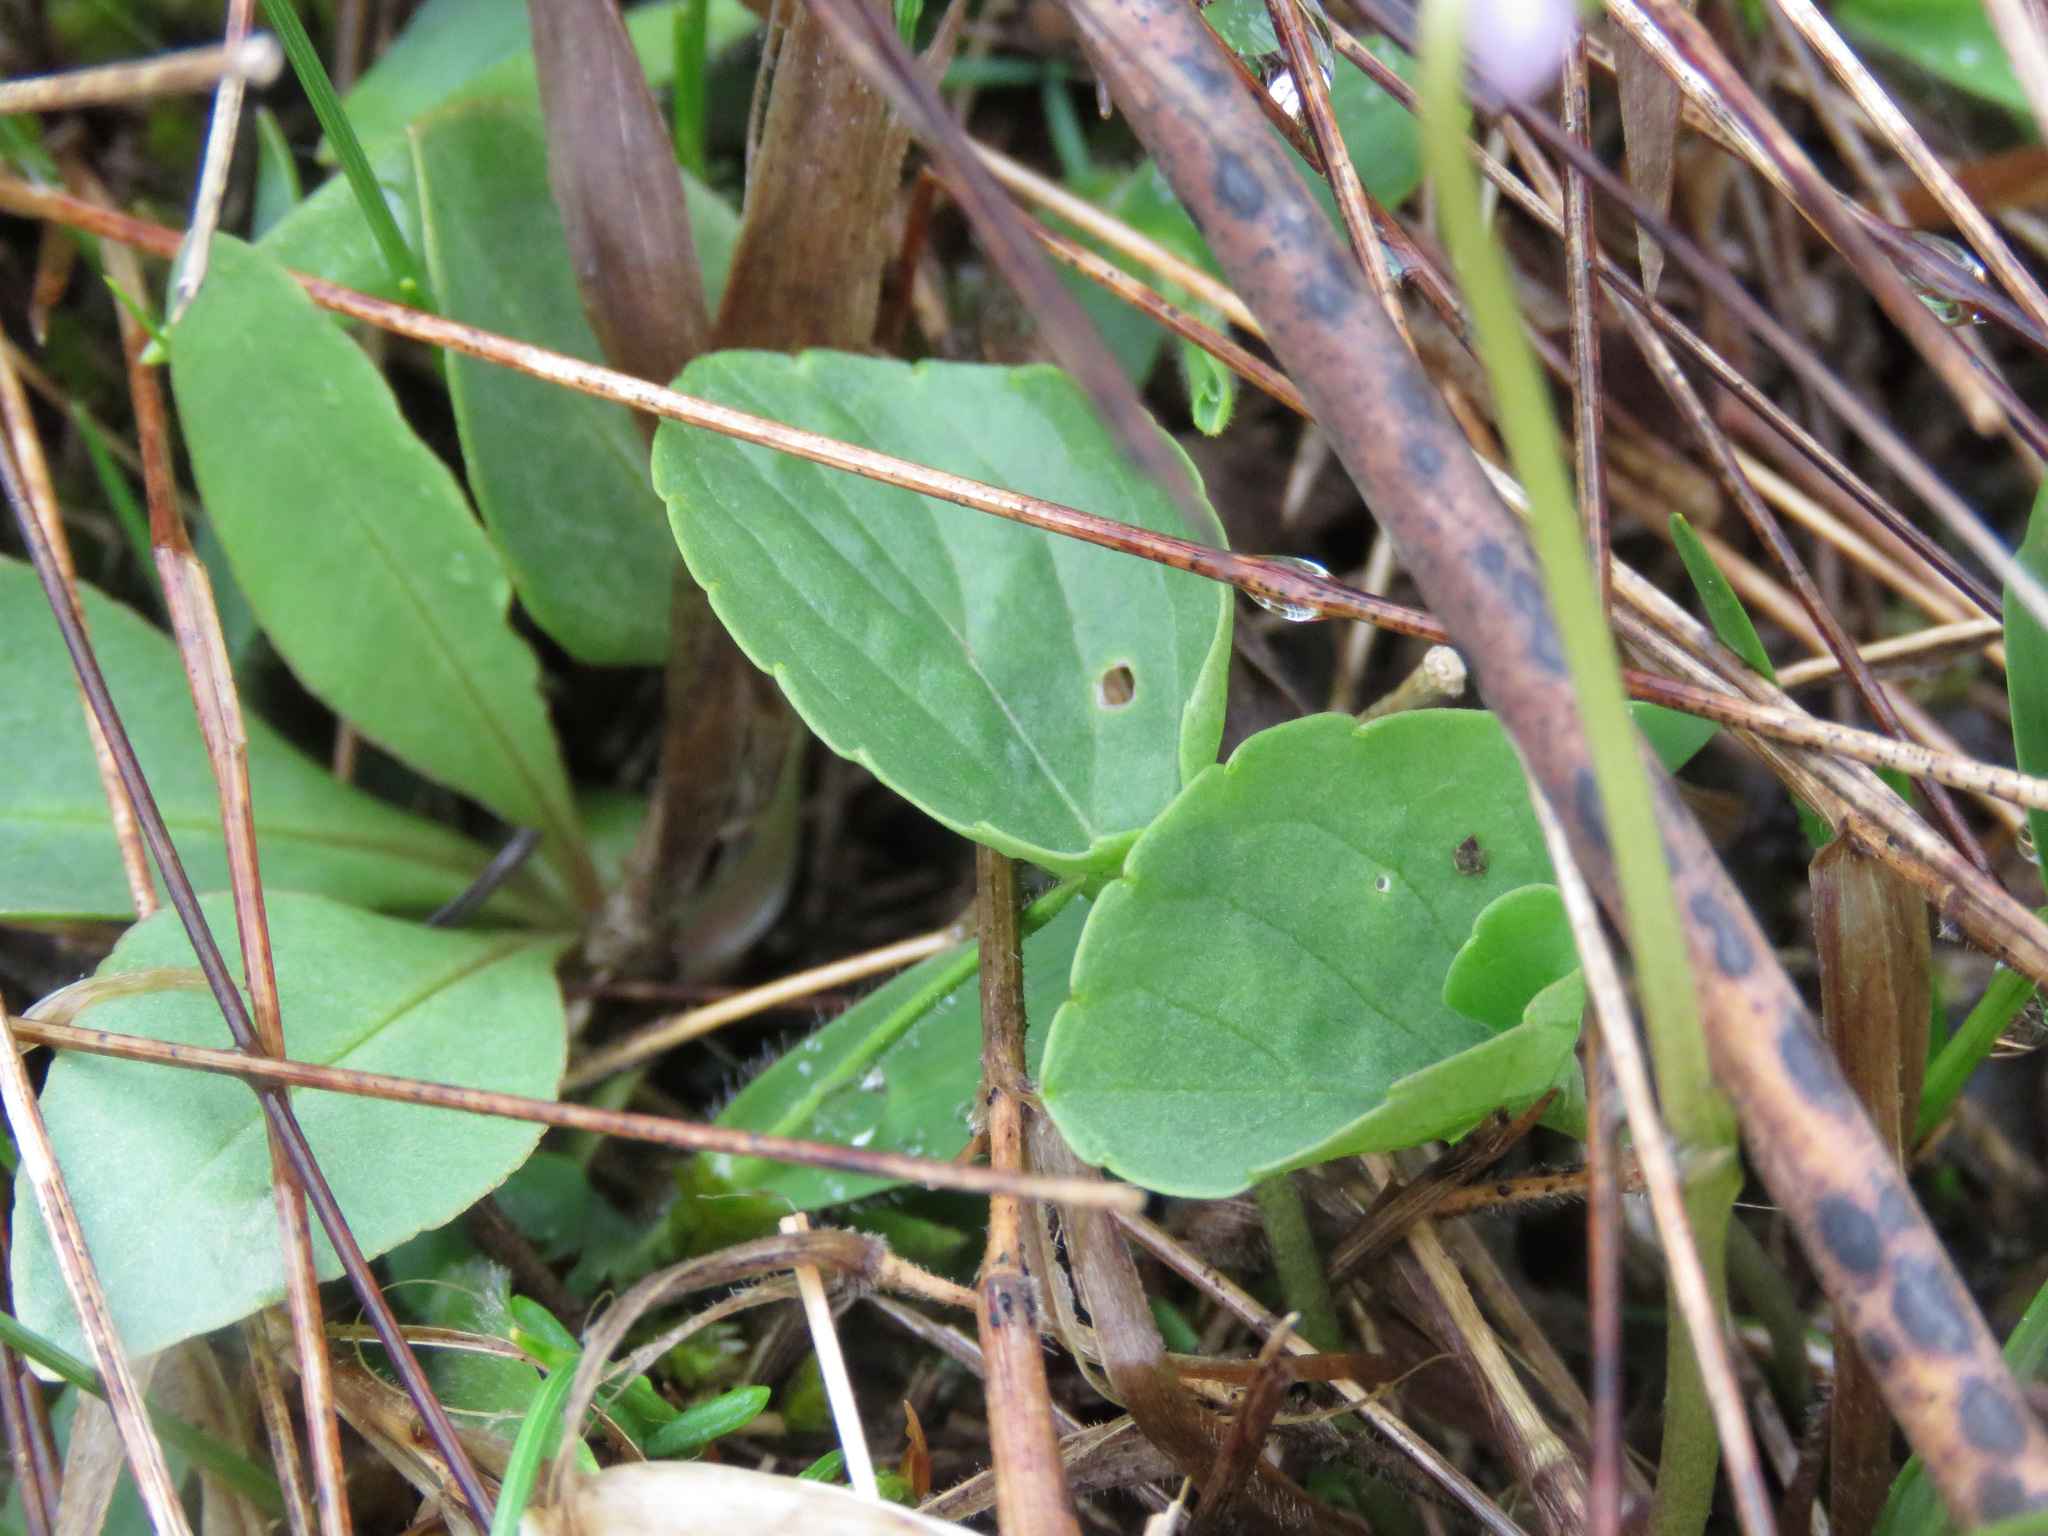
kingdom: Plantae
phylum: Tracheophyta
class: Magnoliopsida
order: Malpighiales
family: Violaceae
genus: Viola
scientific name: Viola palustris
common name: Marsh violet
